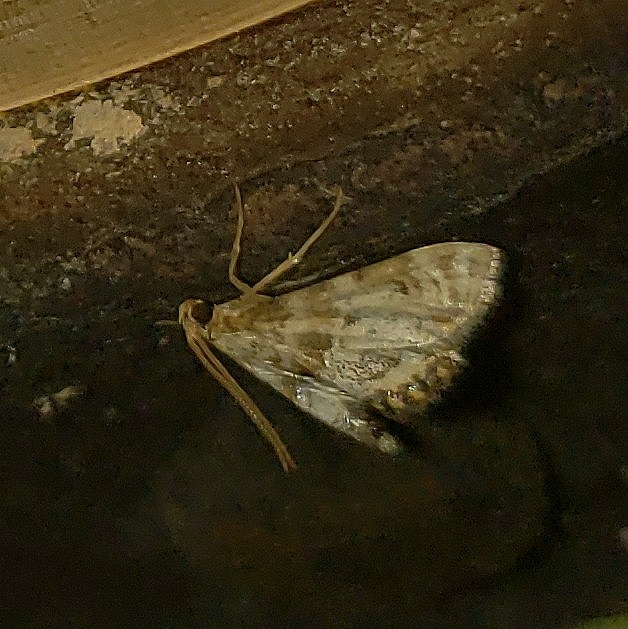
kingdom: Animalia
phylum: Arthropoda
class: Insecta
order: Lepidoptera
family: Crambidae
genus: Petrophila
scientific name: Petrophila fulicalis
